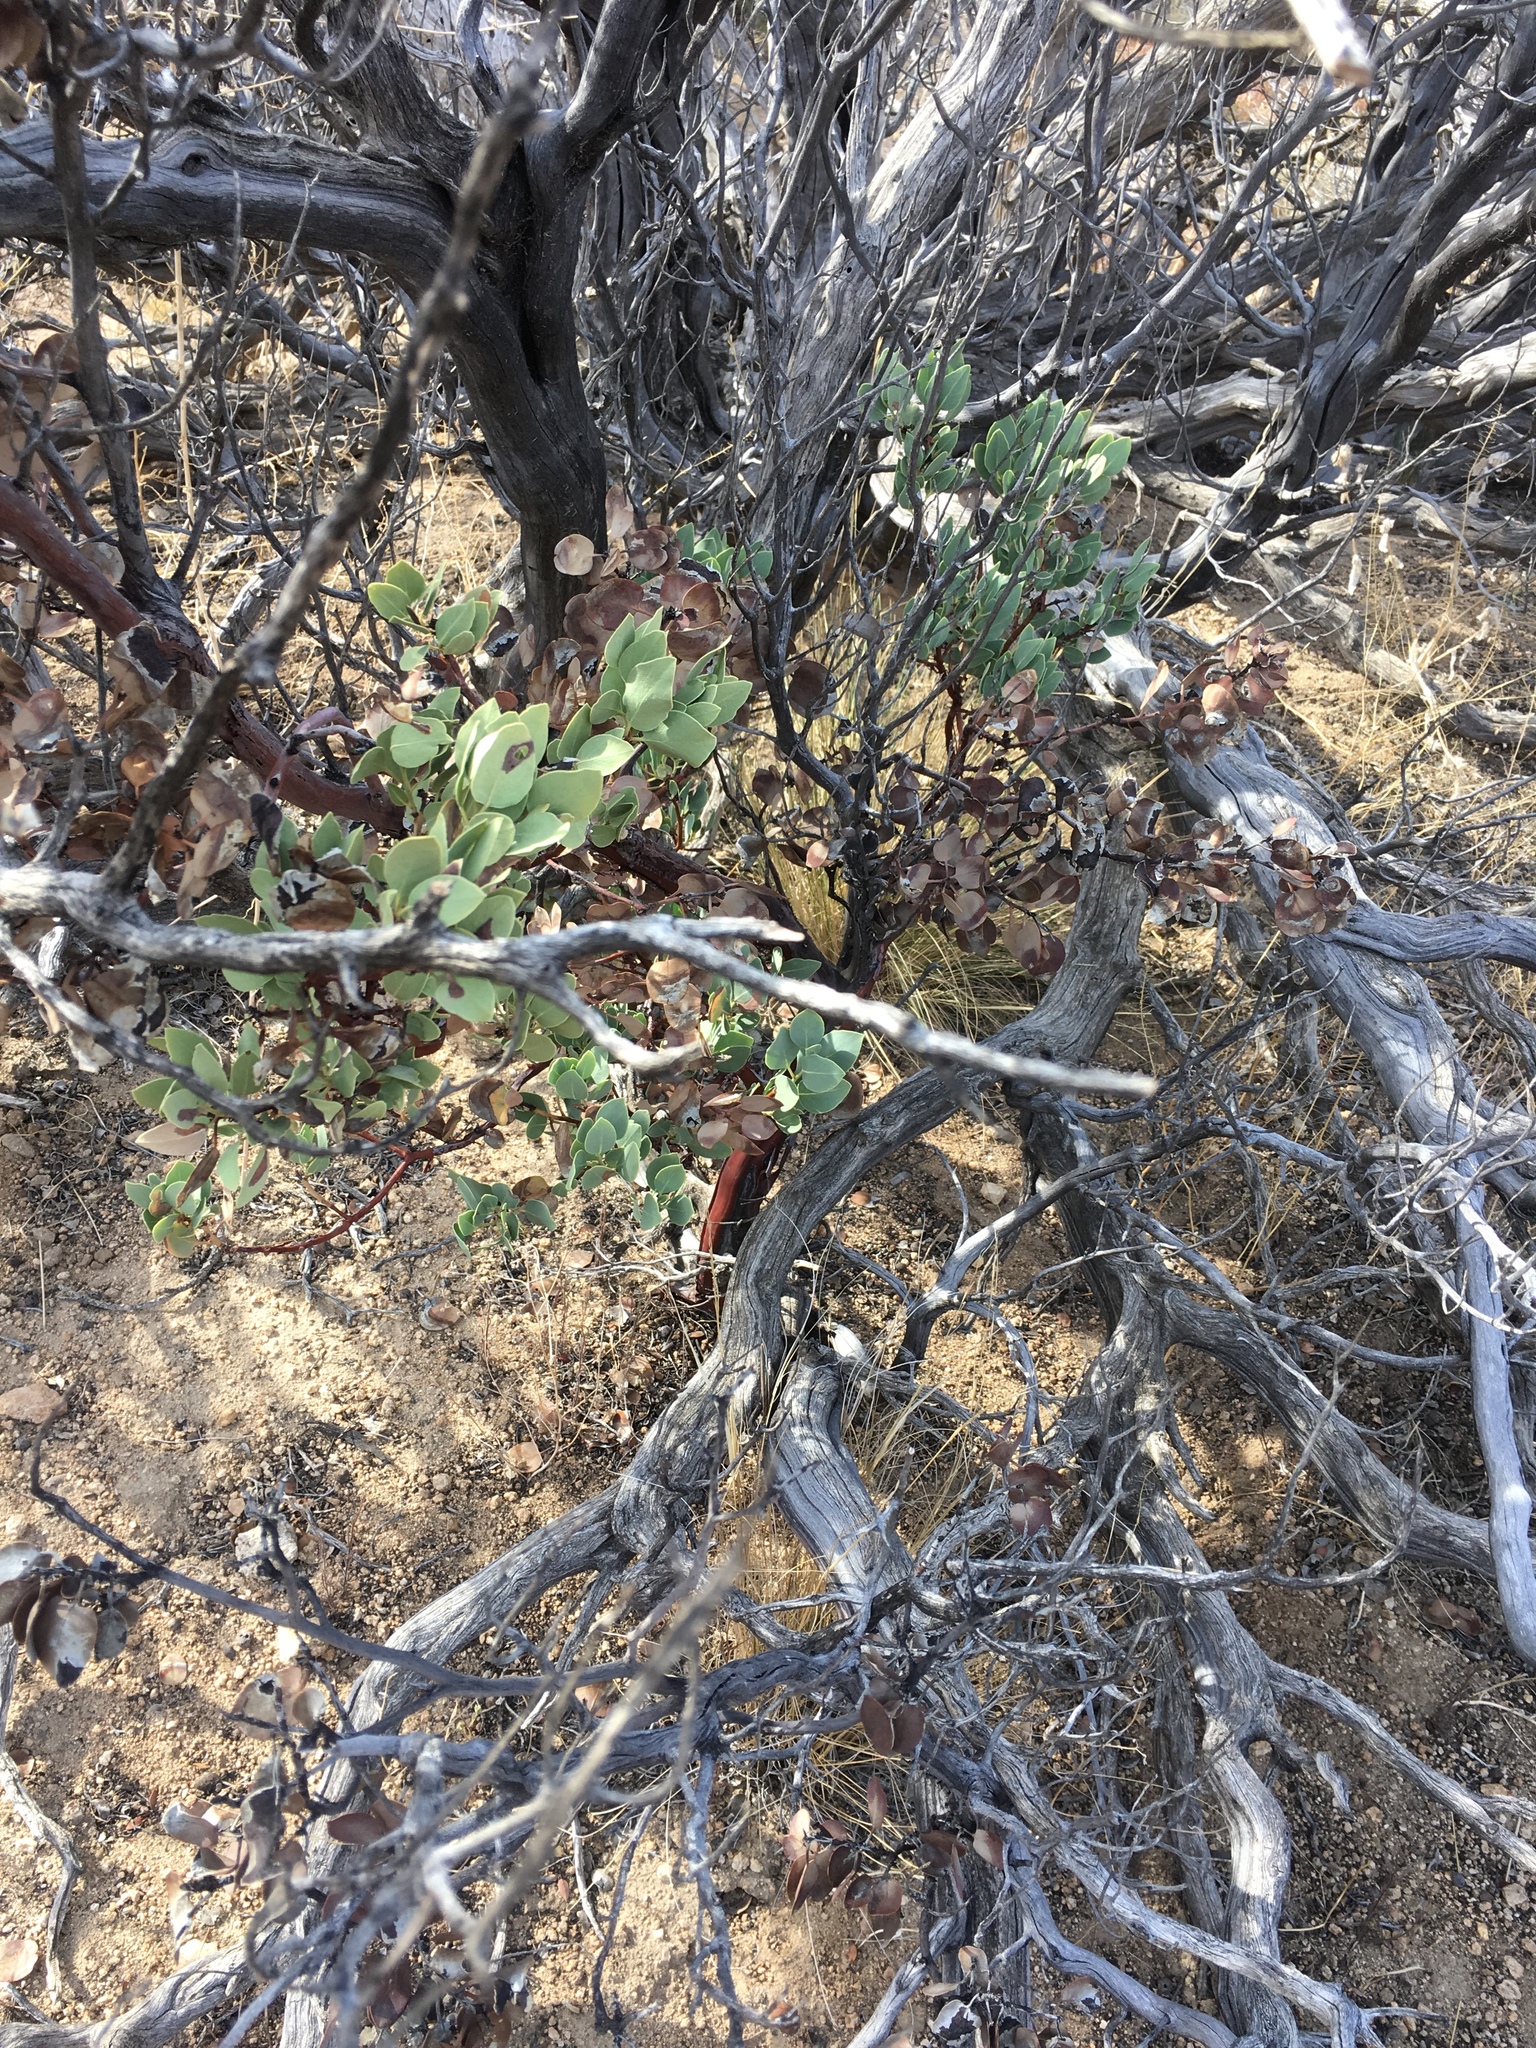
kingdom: Plantae
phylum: Tracheophyta
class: Magnoliopsida
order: Ericales
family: Ericaceae
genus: Arctostaphylos
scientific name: Arctostaphylos glauca
